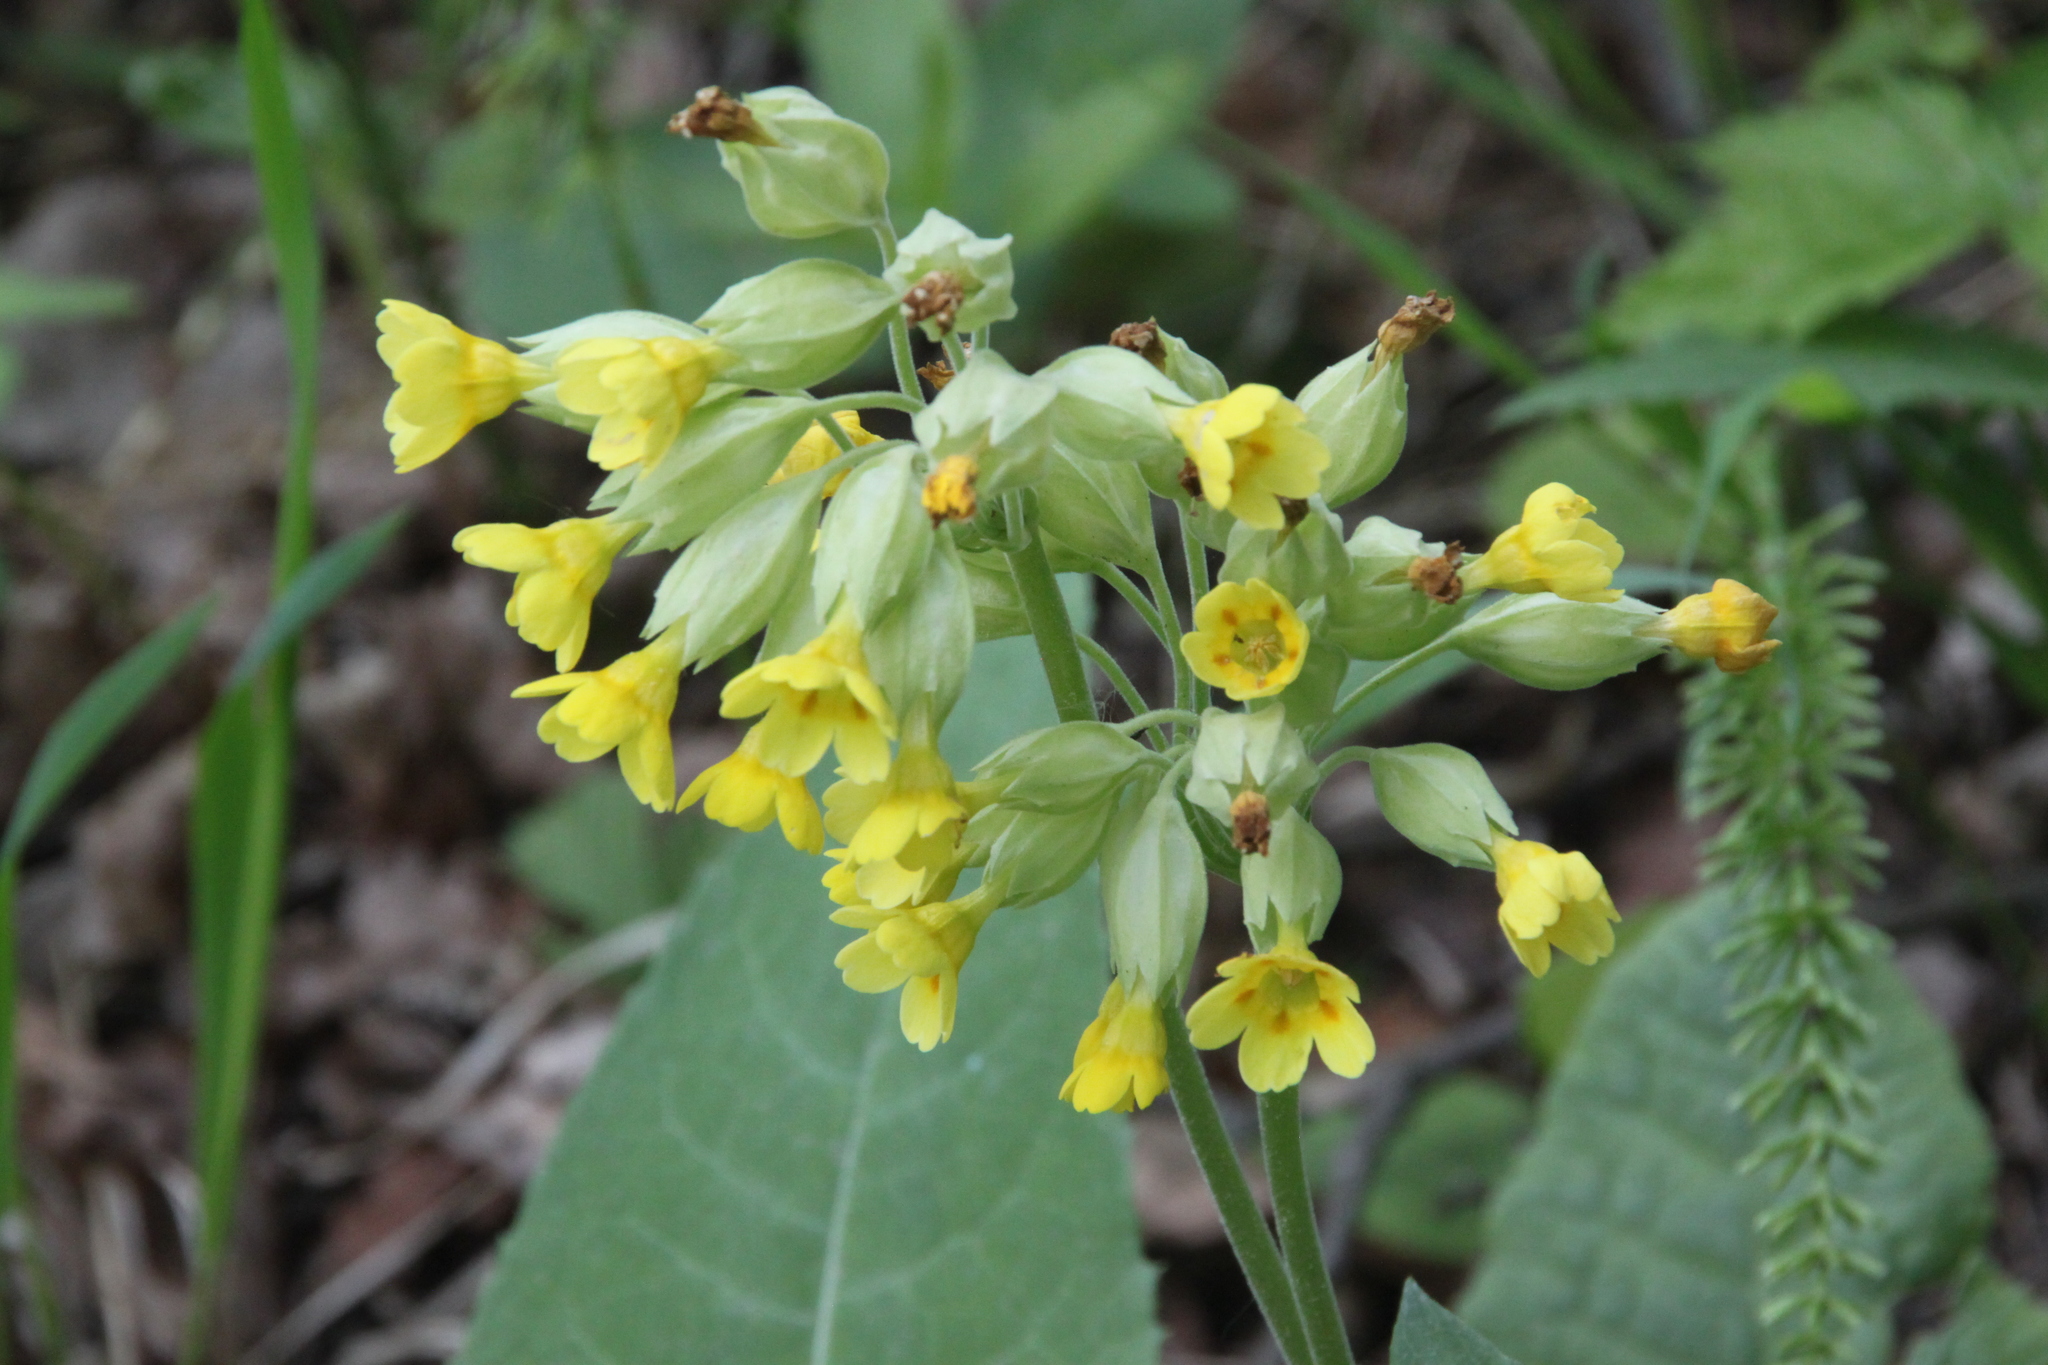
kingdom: Plantae
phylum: Tracheophyta
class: Magnoliopsida
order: Ericales
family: Primulaceae
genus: Primula
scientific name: Primula veris
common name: Cowslip
